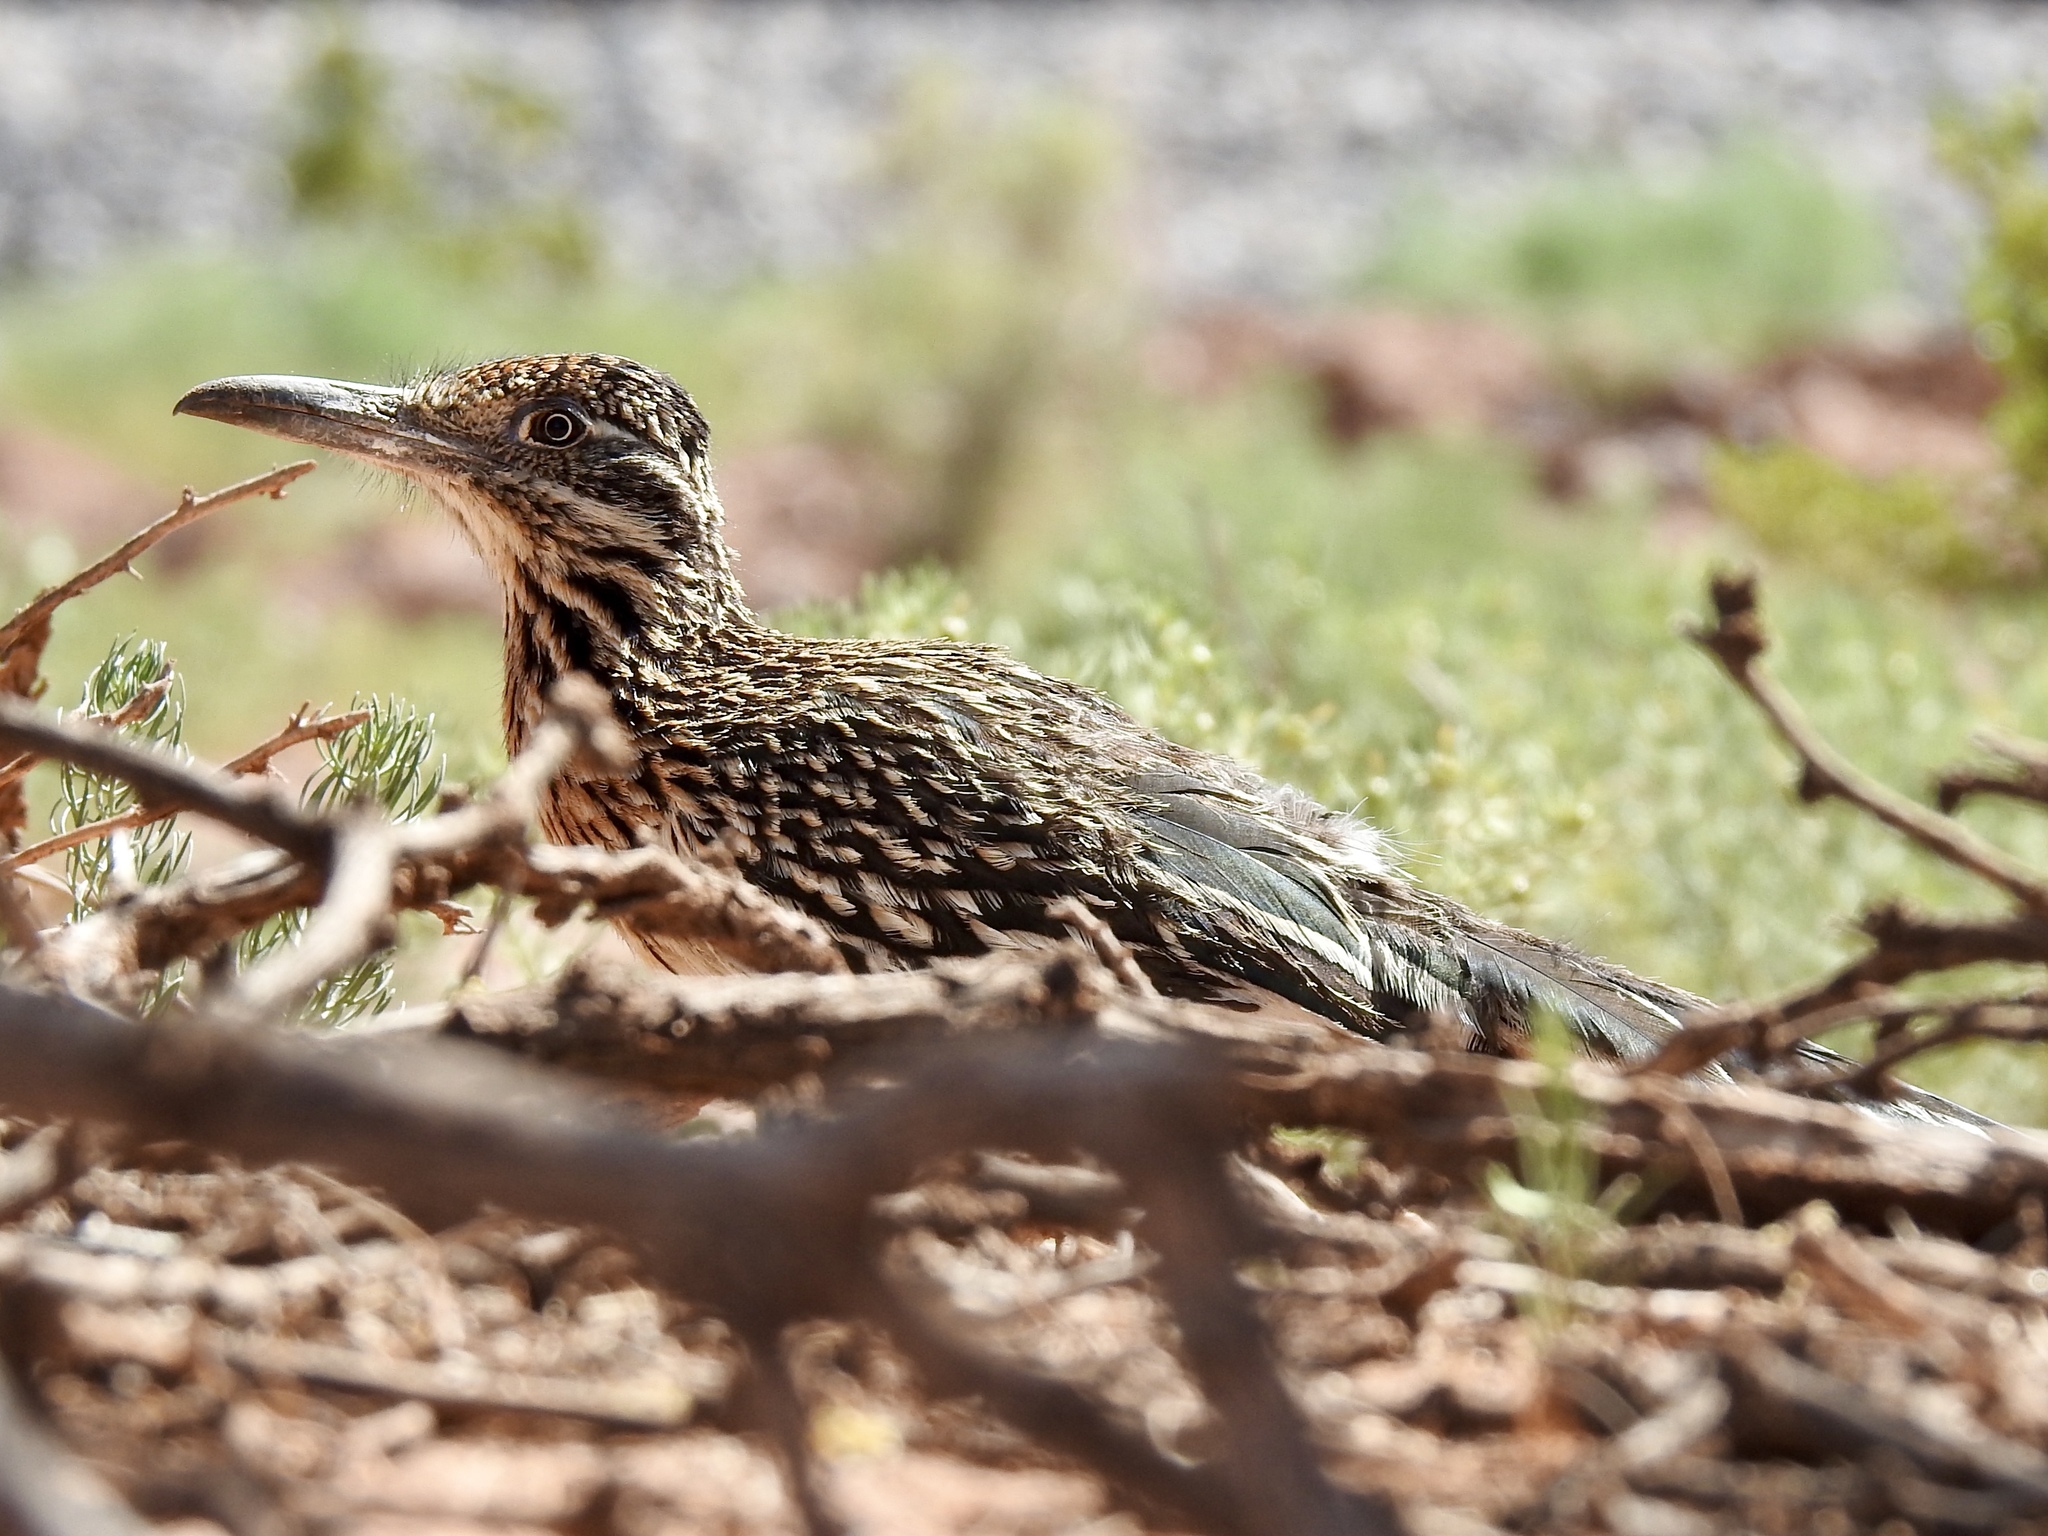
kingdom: Animalia
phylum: Chordata
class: Aves
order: Cuculiformes
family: Cuculidae
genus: Geococcyx
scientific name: Geococcyx californianus
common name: Greater roadrunner
